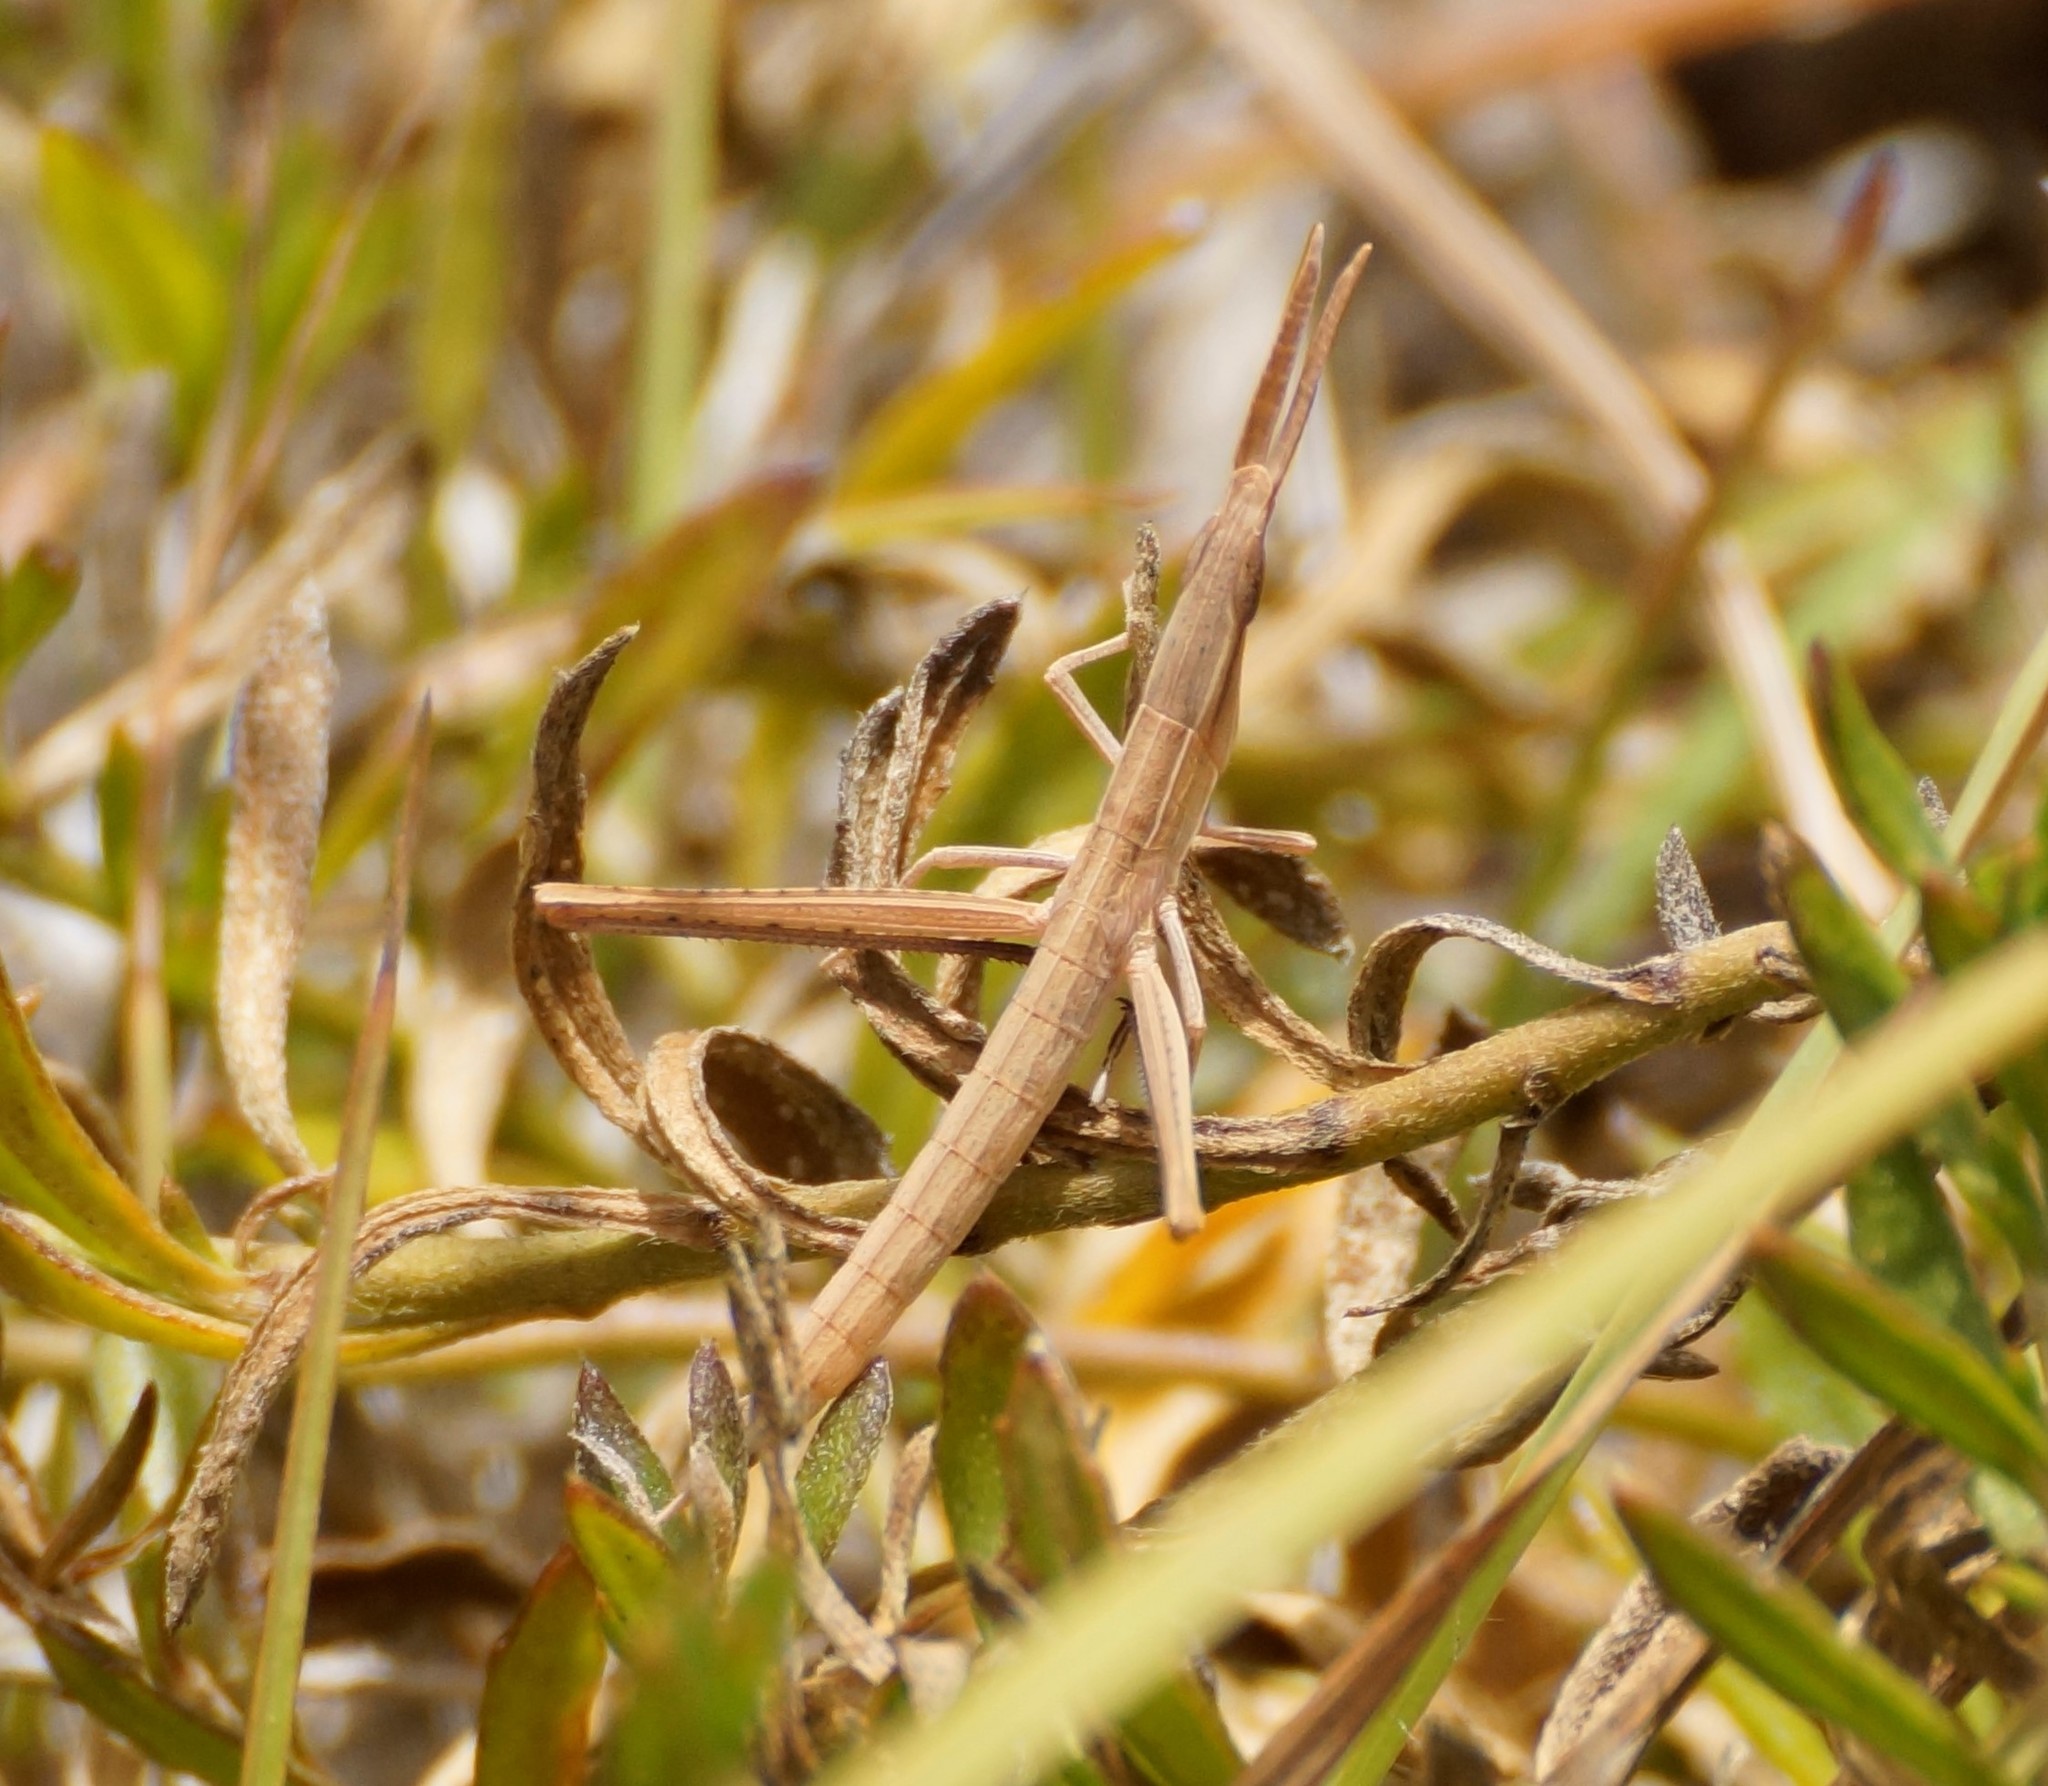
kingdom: Animalia
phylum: Arthropoda
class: Insecta
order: Orthoptera
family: Acrididae
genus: Acrida
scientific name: Acrida conica
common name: Giant green slantface
